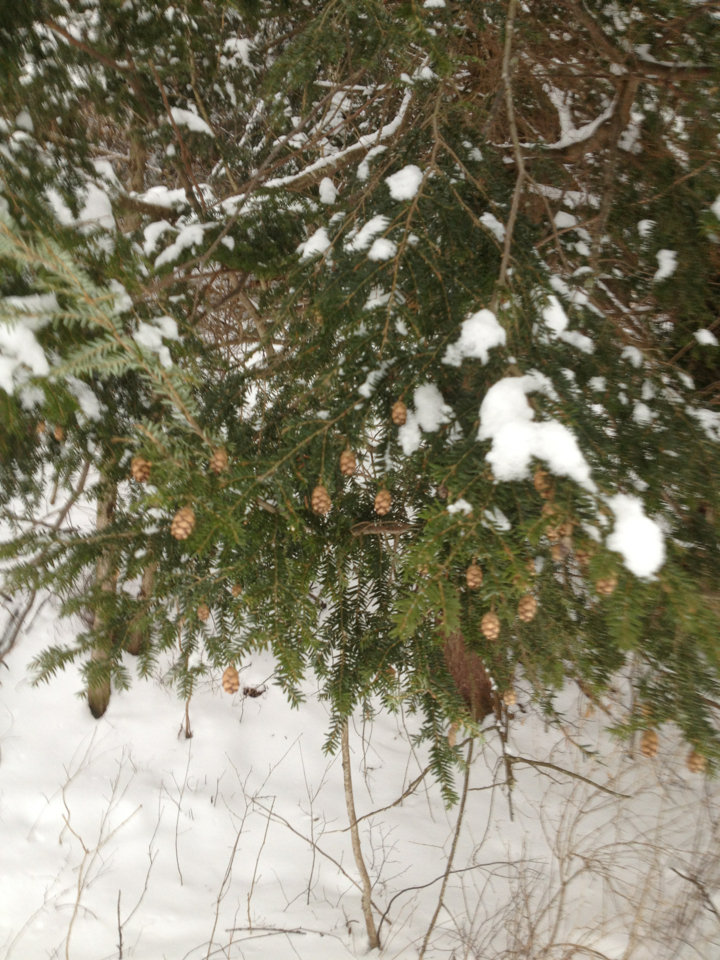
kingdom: Plantae
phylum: Tracheophyta
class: Pinopsida
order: Pinales
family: Pinaceae
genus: Tsuga
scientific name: Tsuga canadensis
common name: Eastern hemlock
